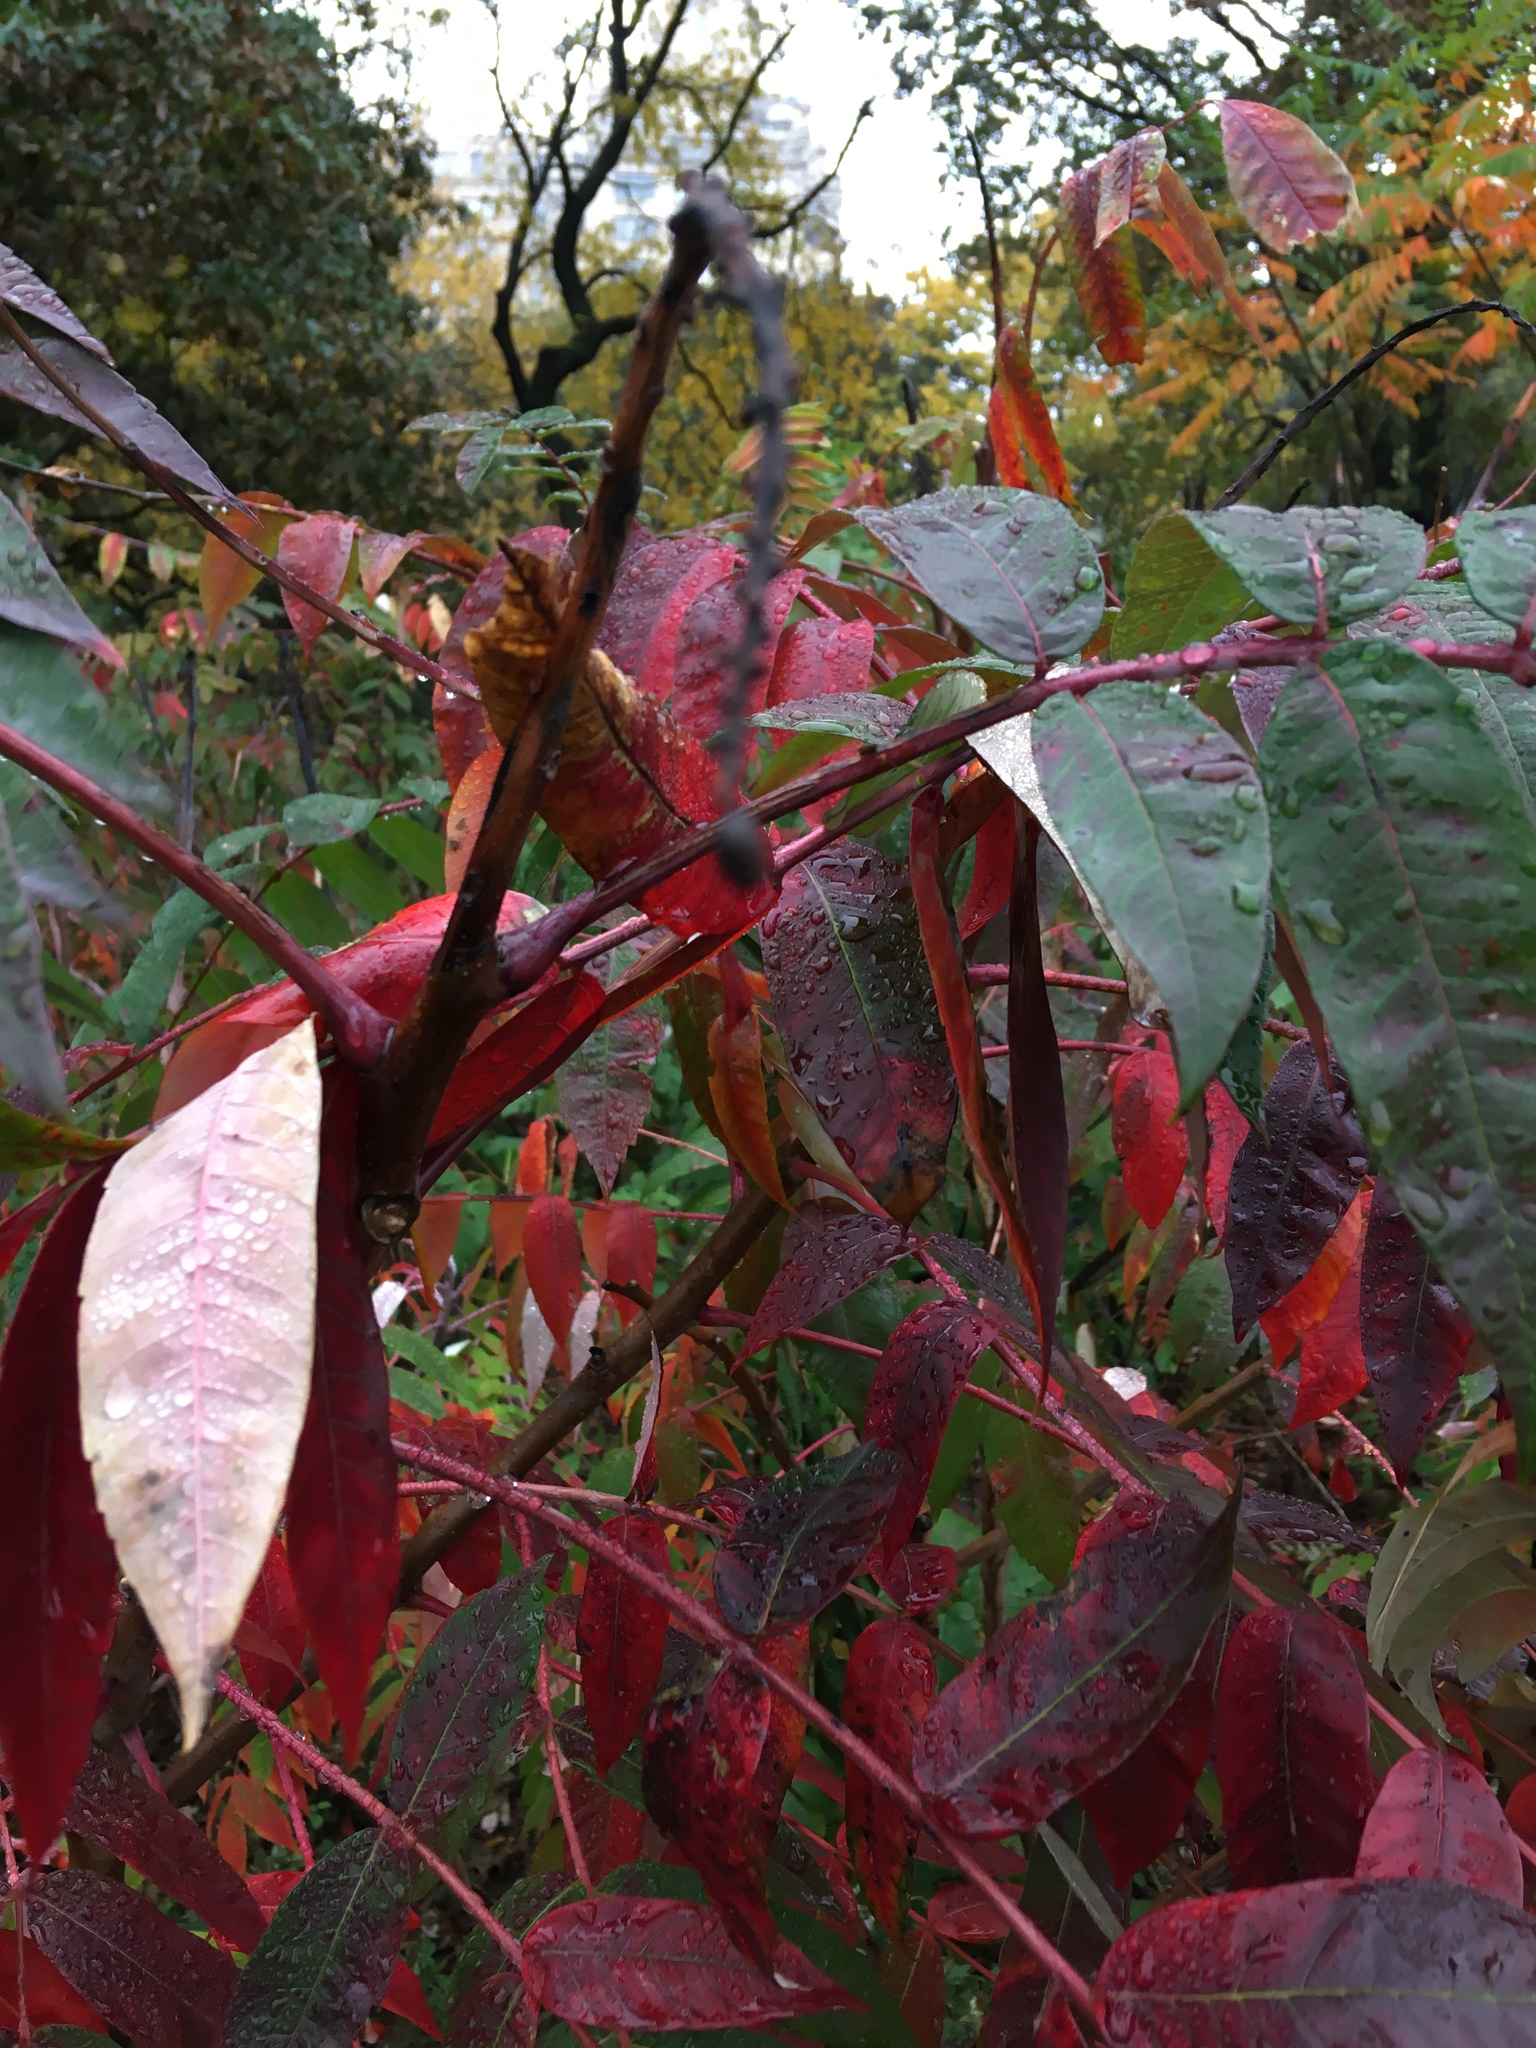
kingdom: Plantae
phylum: Tracheophyta
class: Magnoliopsida
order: Sapindales
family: Anacardiaceae
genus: Rhus
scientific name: Rhus glabra
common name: Scarlet sumac
